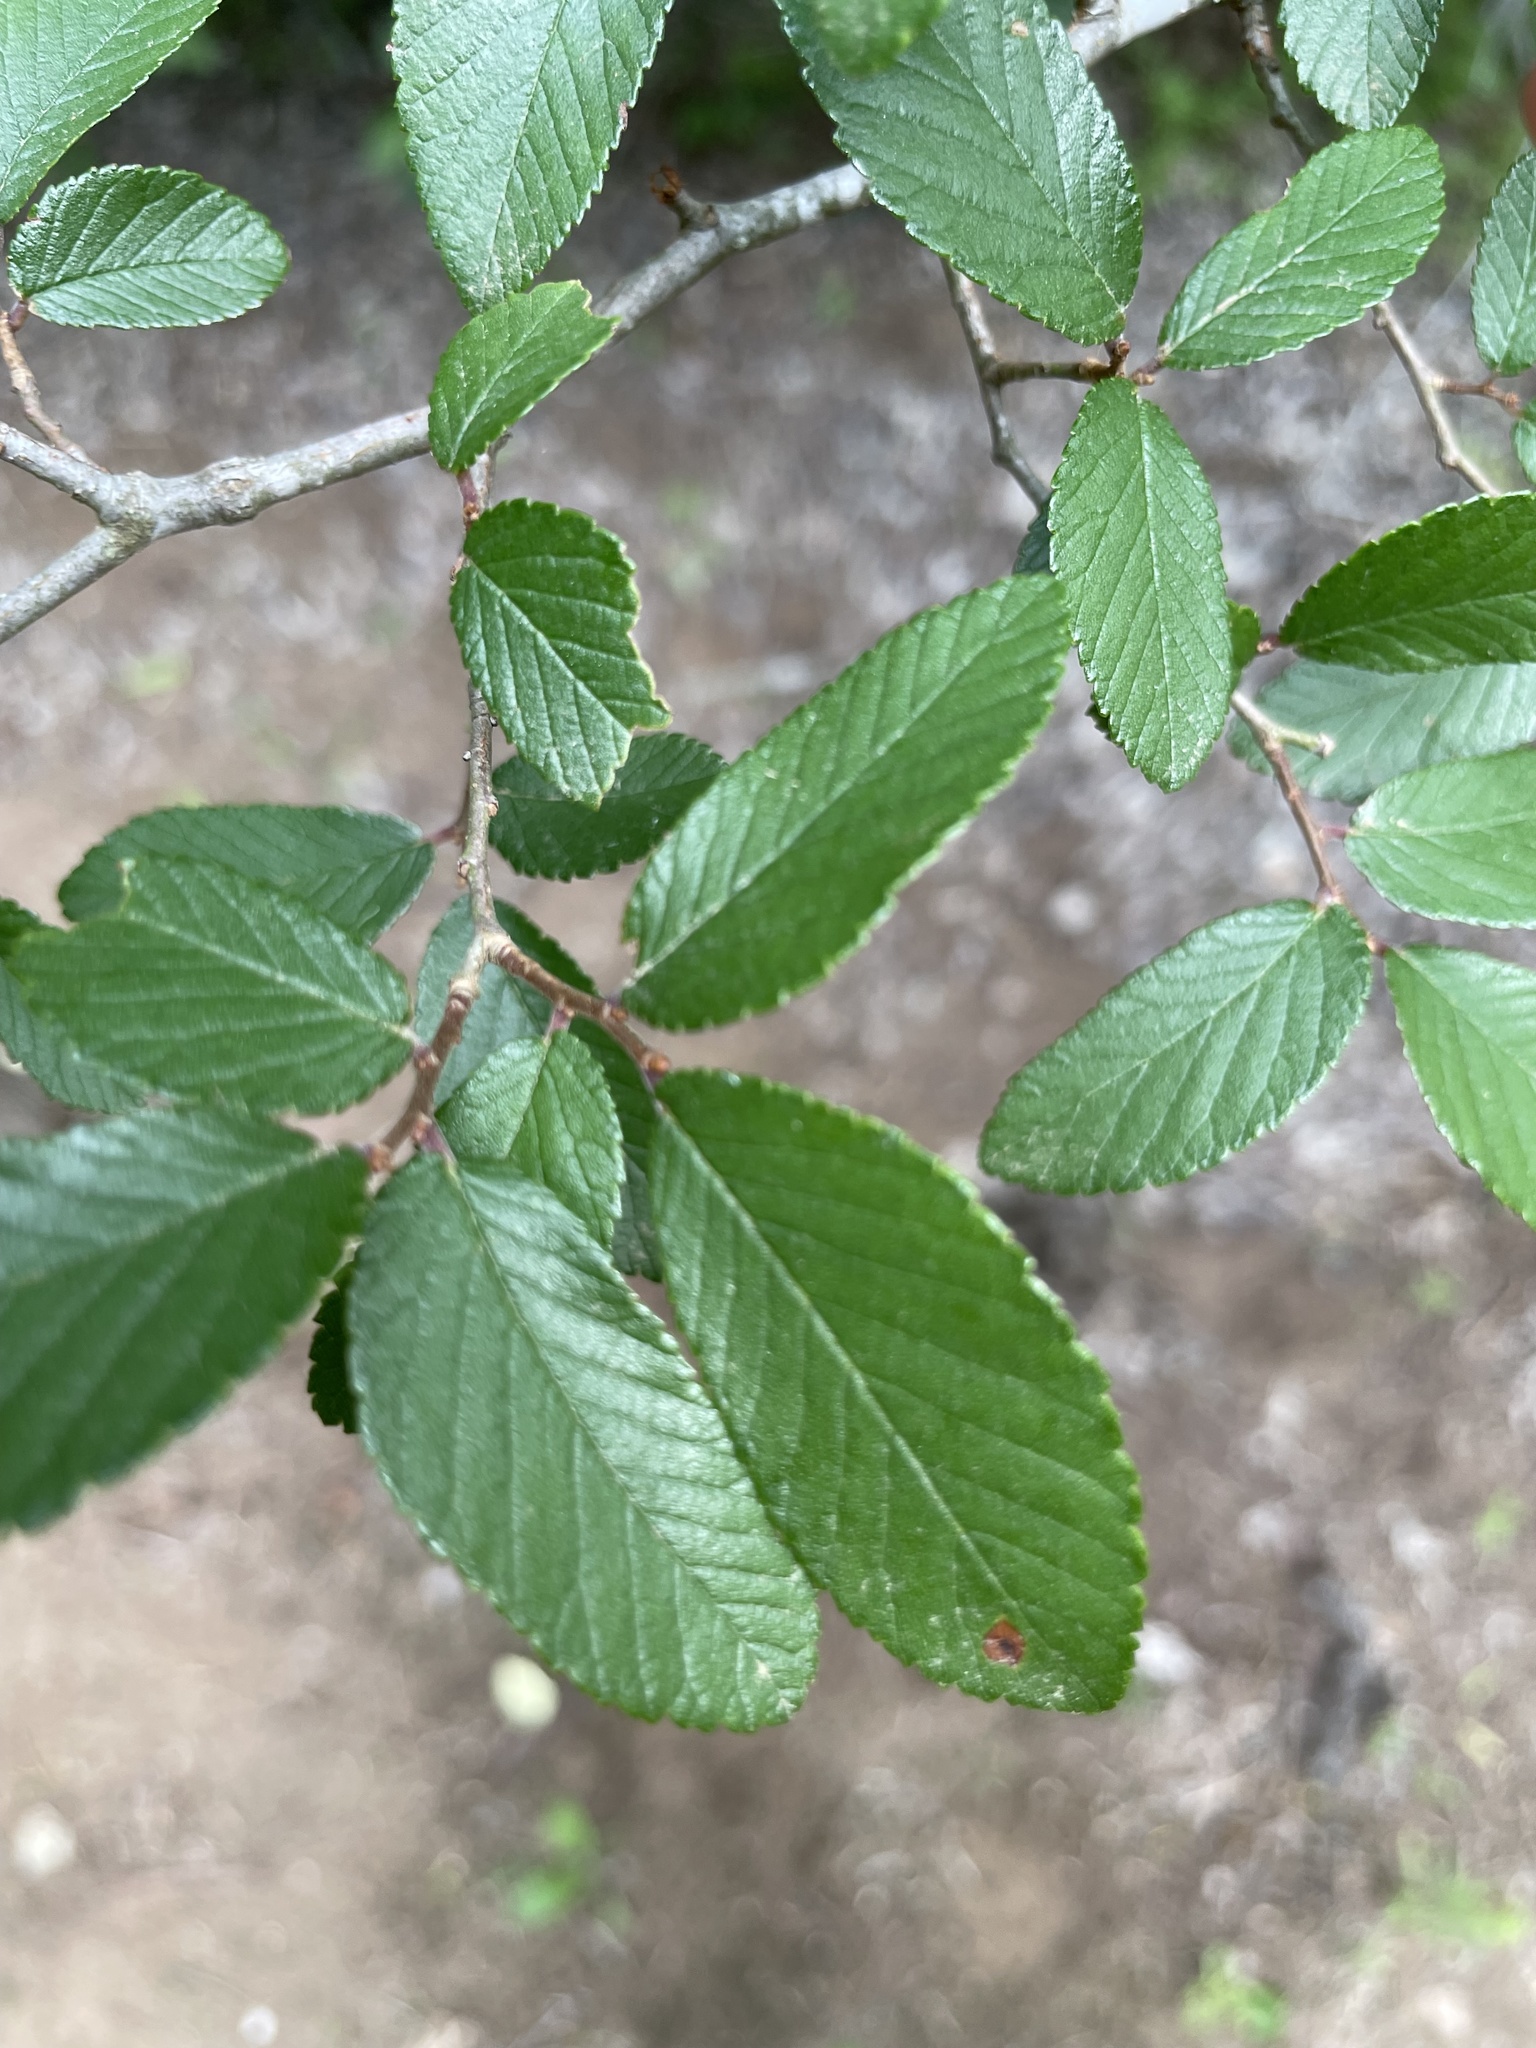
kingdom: Plantae
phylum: Tracheophyta
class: Magnoliopsida
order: Rosales
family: Ulmaceae
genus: Ulmus
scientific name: Ulmus crassifolia
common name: Basket elm
